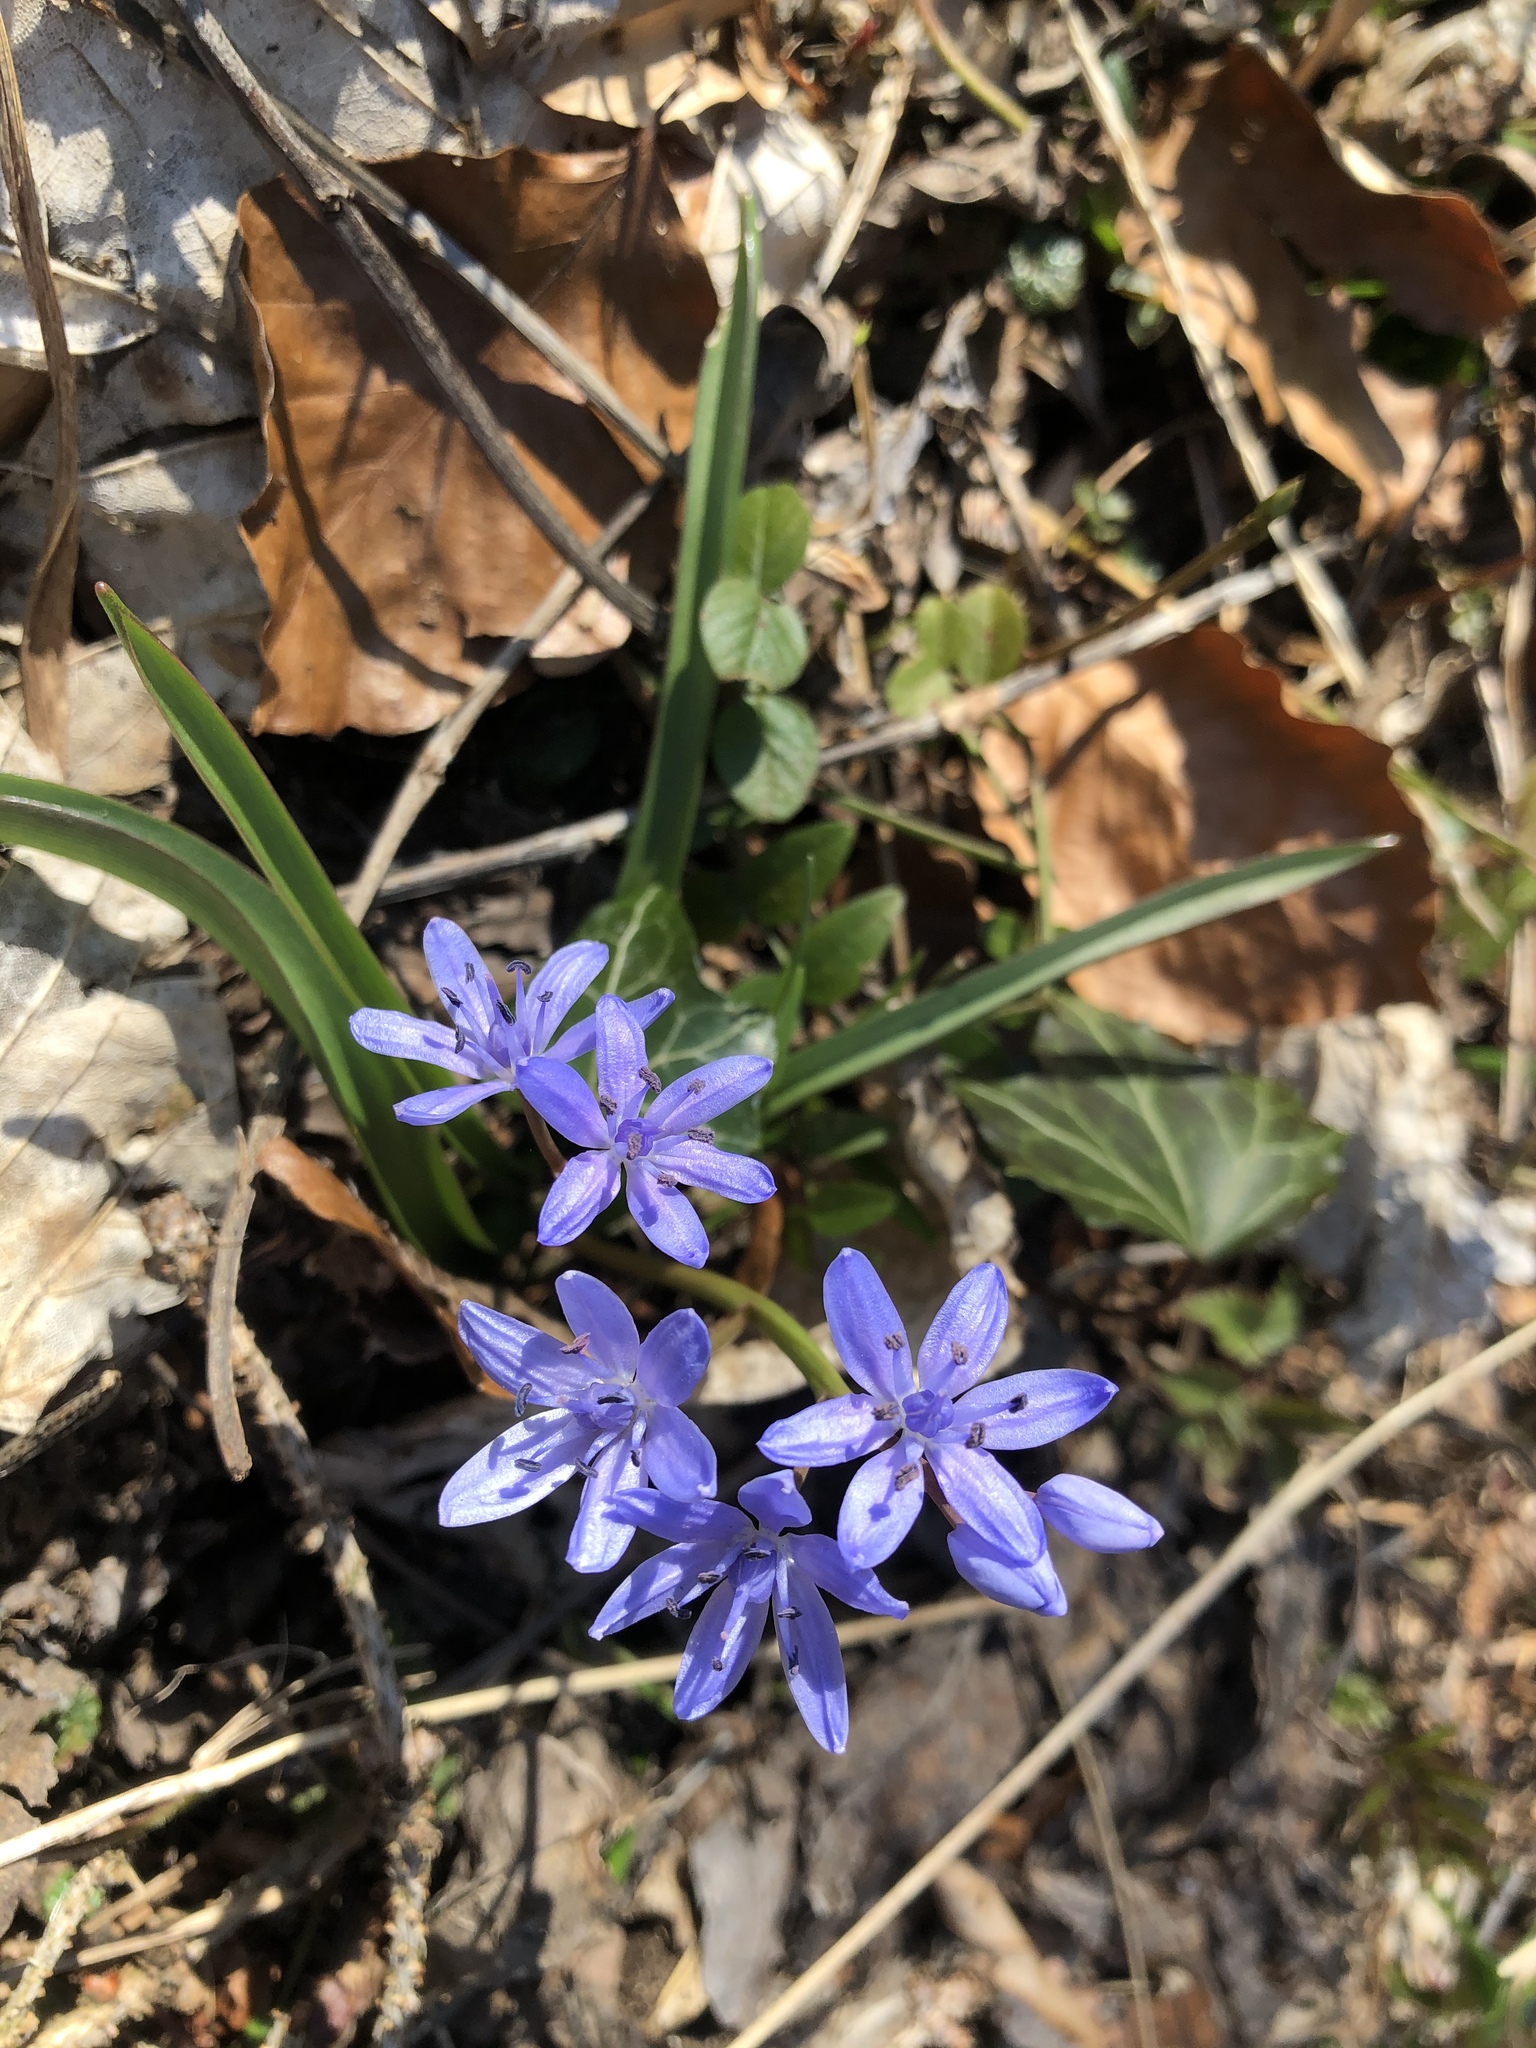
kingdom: Plantae
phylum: Tracheophyta
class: Liliopsida
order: Asparagales
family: Asparagaceae
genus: Scilla
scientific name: Scilla bifolia
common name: Alpine squill
